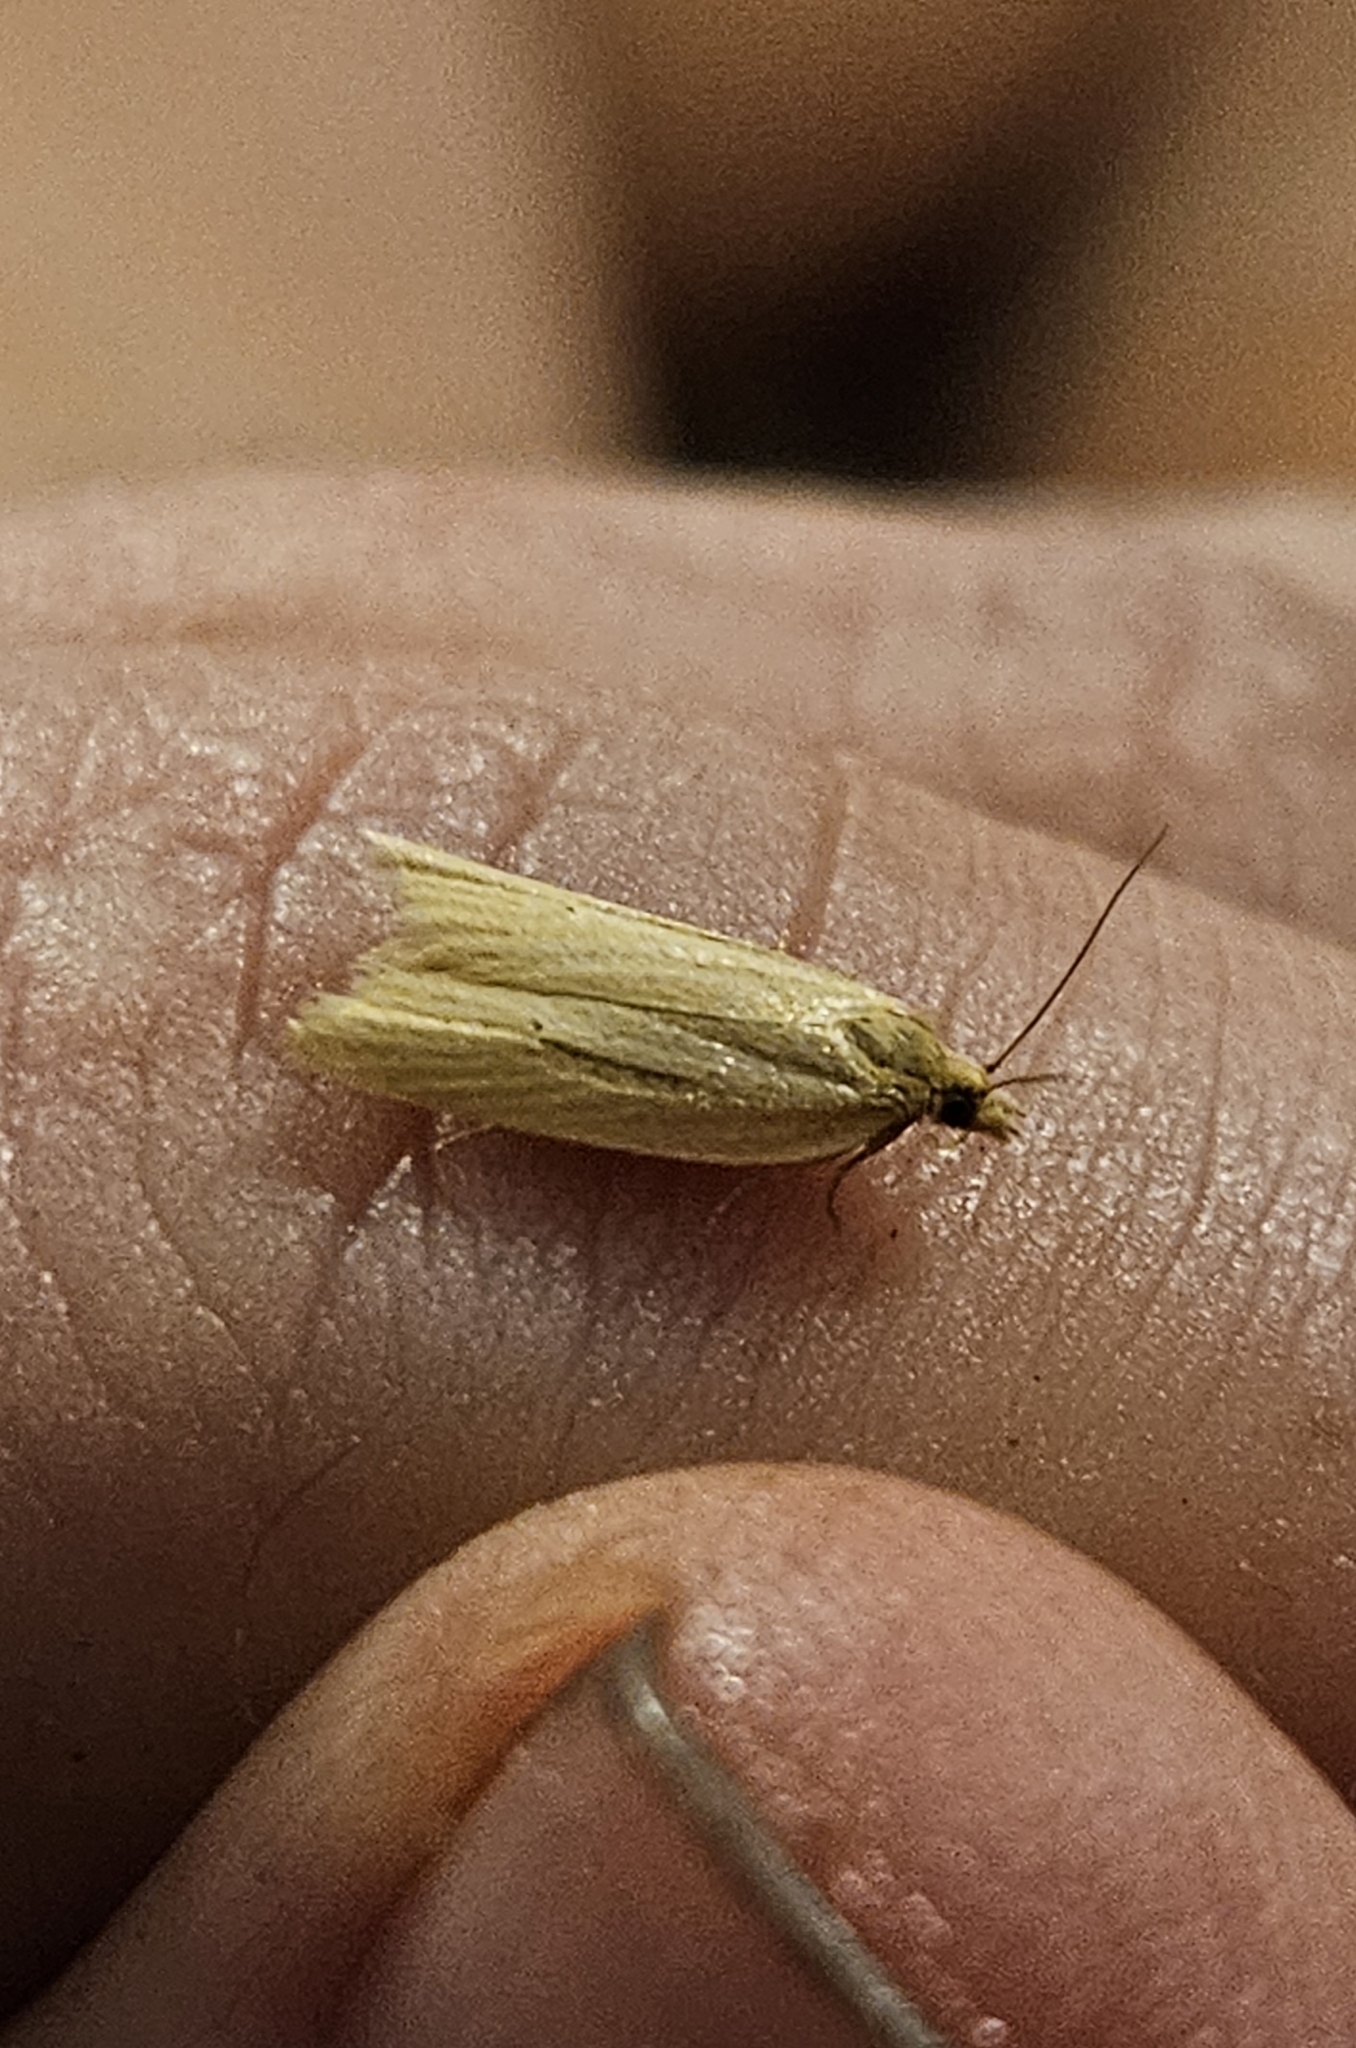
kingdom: Animalia
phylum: Arthropoda
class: Insecta
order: Lepidoptera
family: Tortricidae
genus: Clepsis
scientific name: Clepsis
